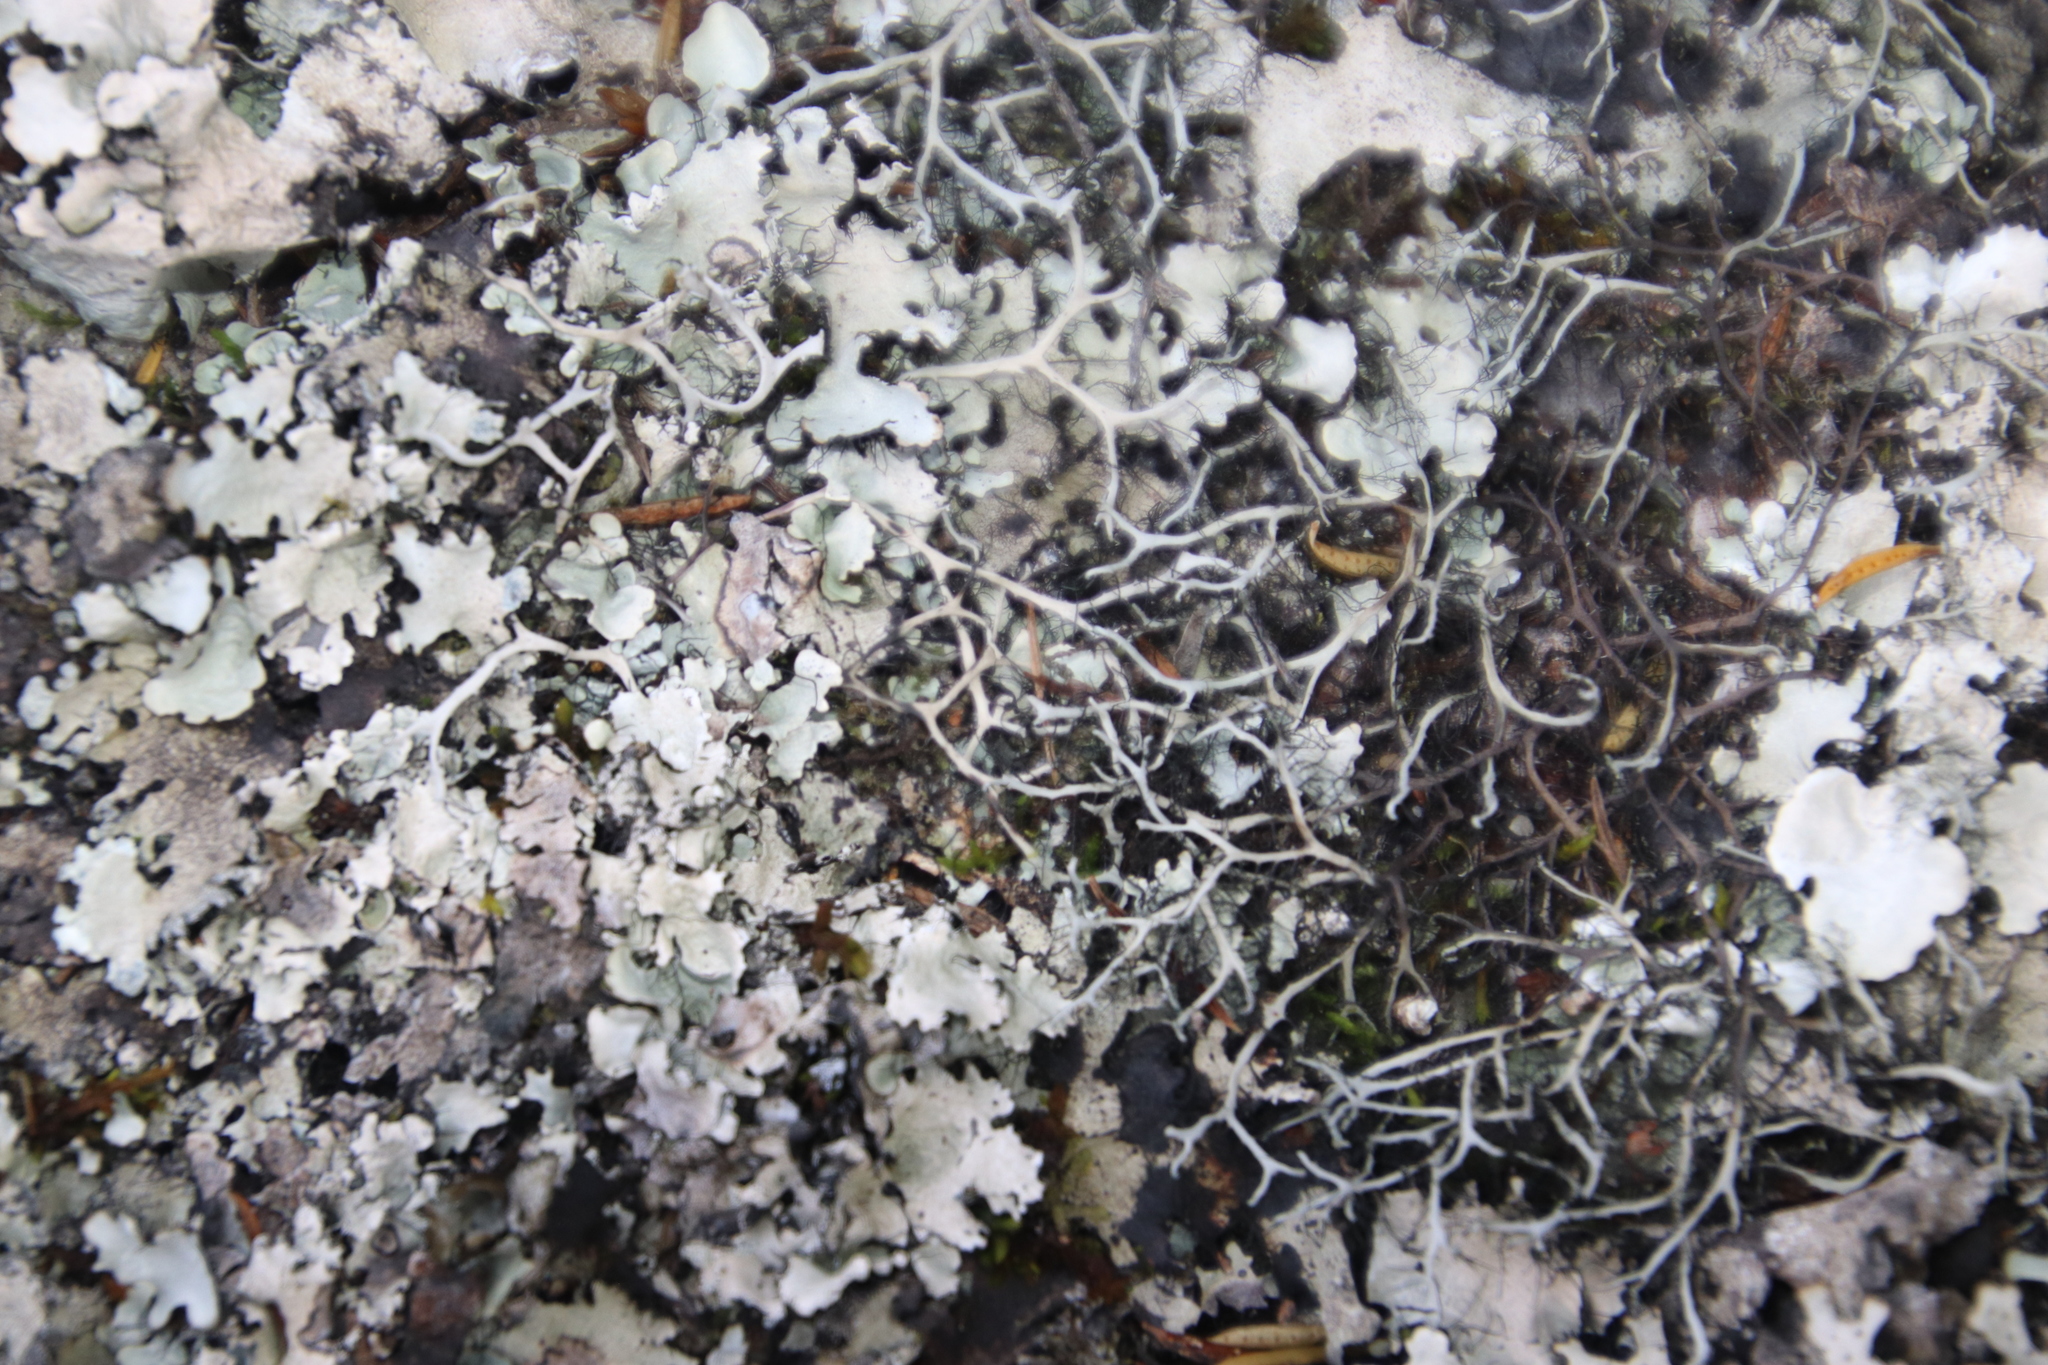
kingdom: Fungi
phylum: Ascomycota
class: Lecanoromycetes
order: Caliciales
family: Physciaceae
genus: Leucodermia
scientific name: Leucodermia leucomelos
